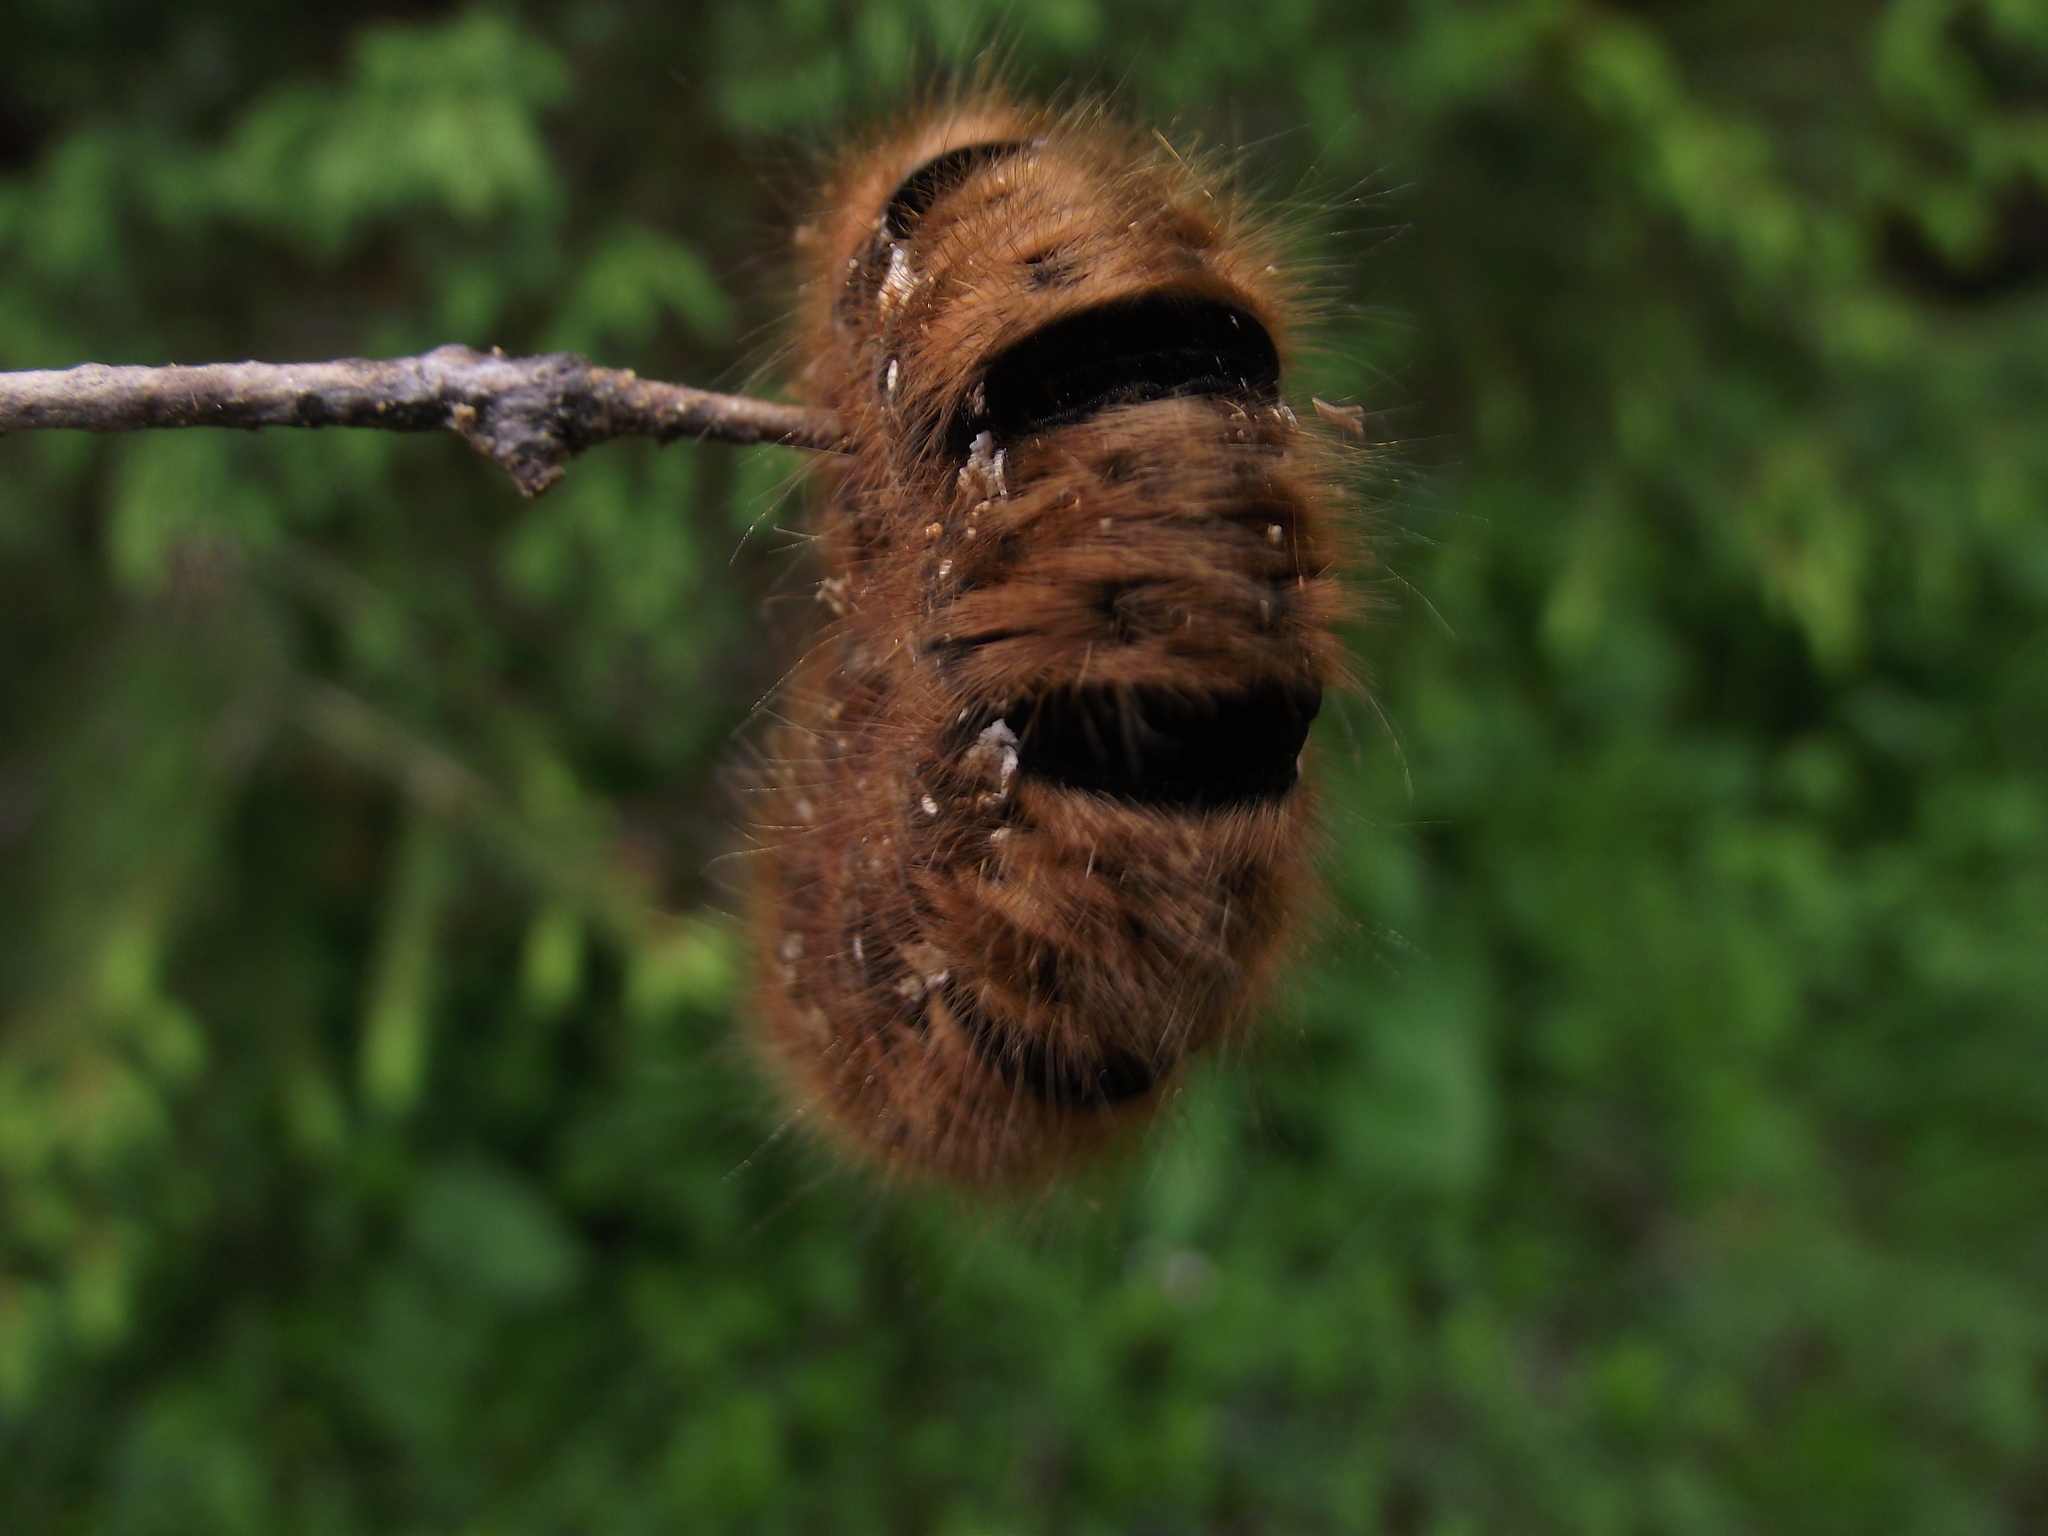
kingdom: Animalia
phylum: Arthropoda
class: Insecta
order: Lepidoptera
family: Lasiocampidae
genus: Lasiocampa
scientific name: Lasiocampa quercus
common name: Oak eggar
